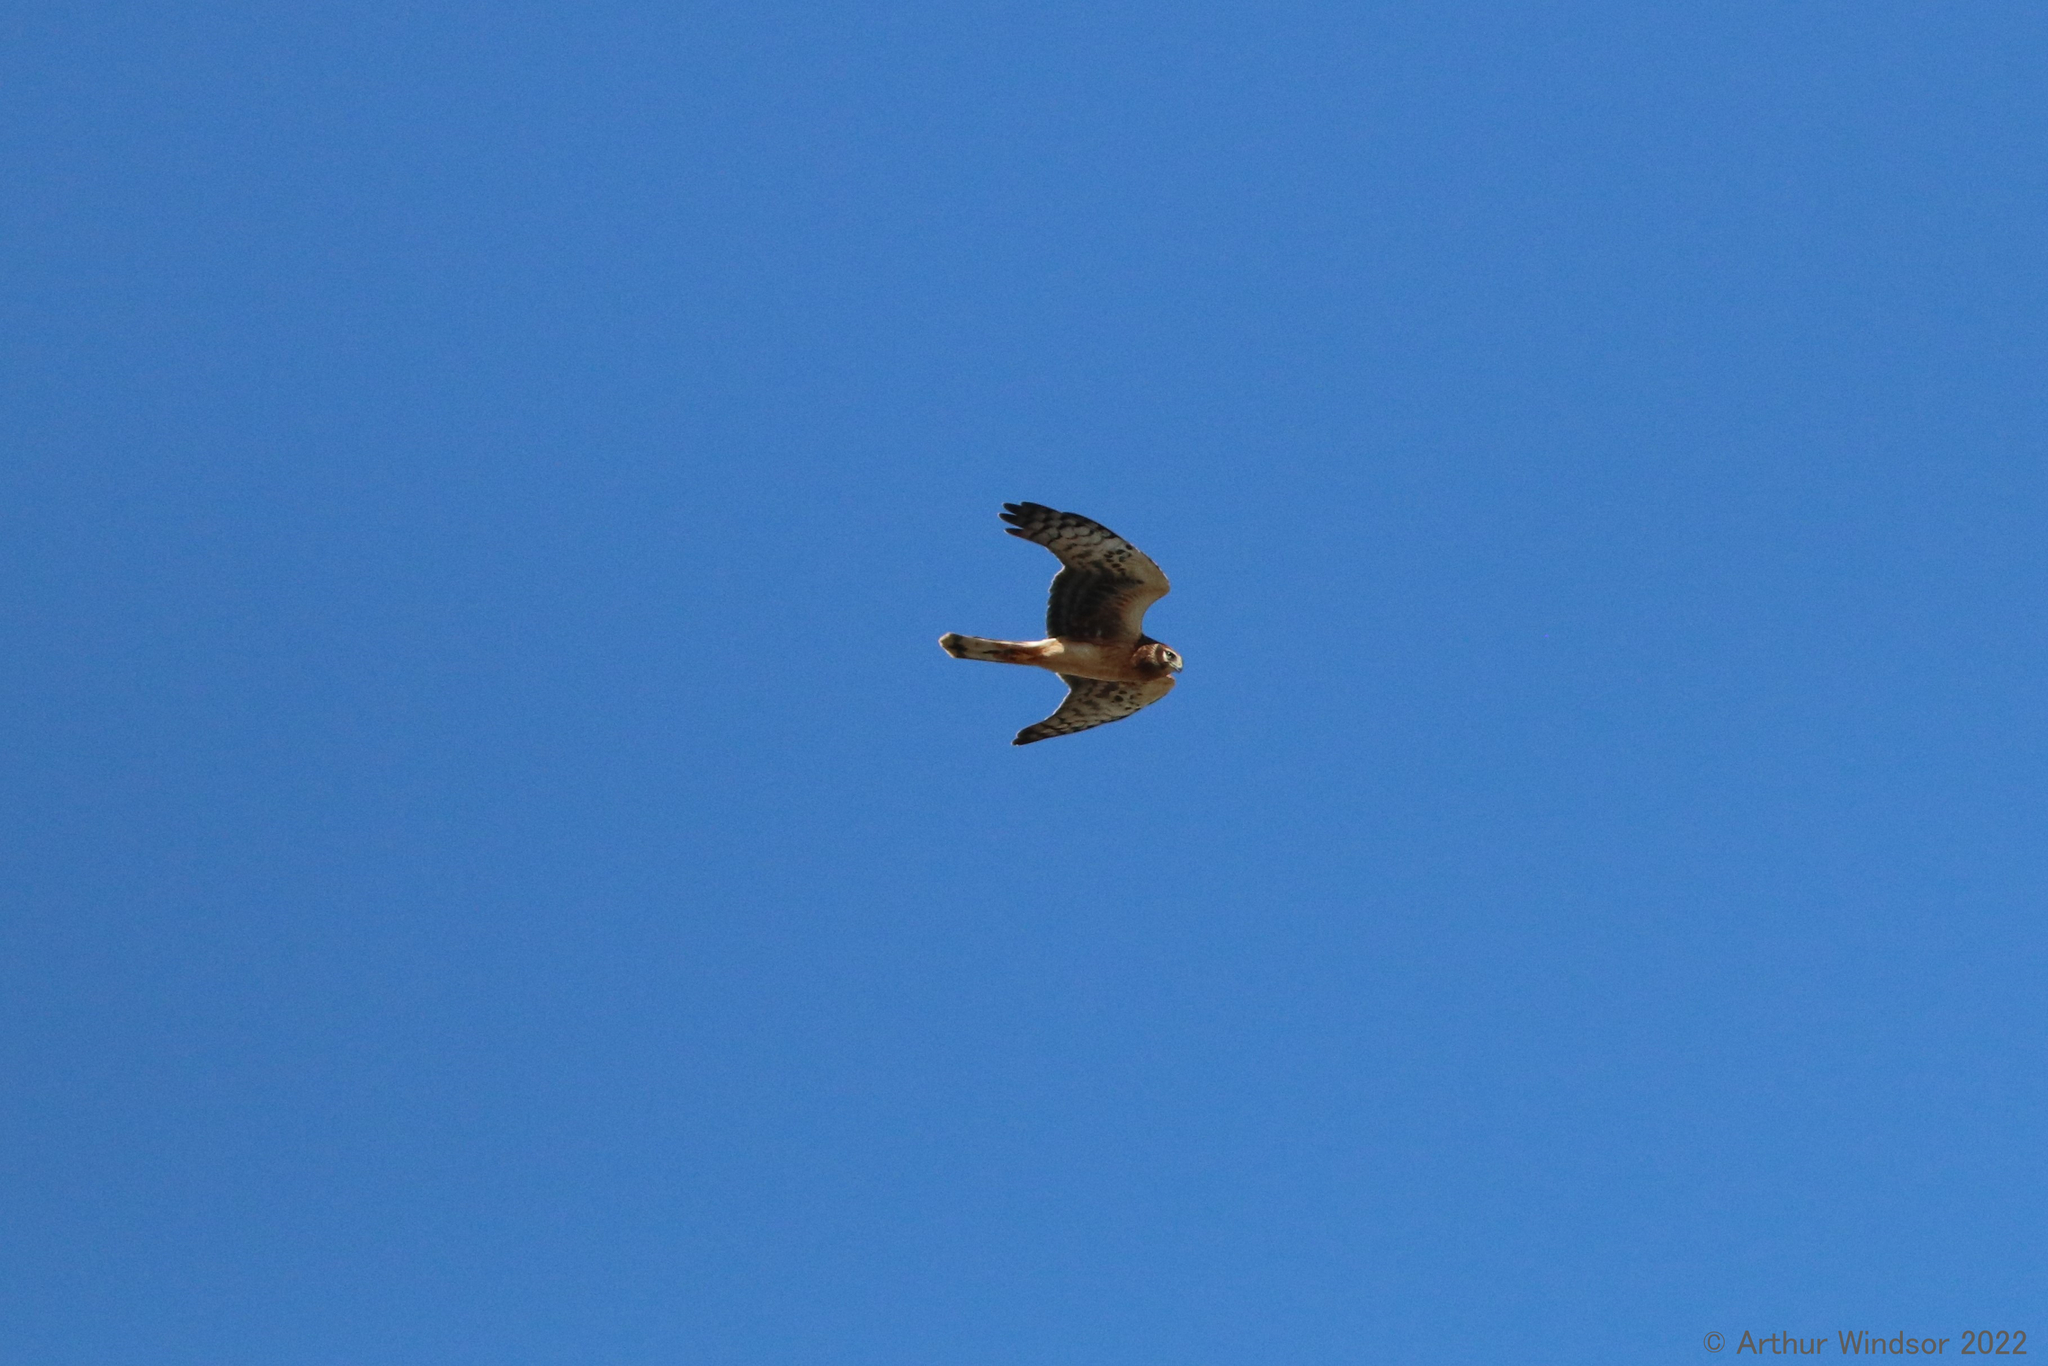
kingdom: Animalia
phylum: Chordata
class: Aves
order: Accipitriformes
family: Accipitridae
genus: Circus
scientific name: Circus cyaneus
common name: Hen harrier
